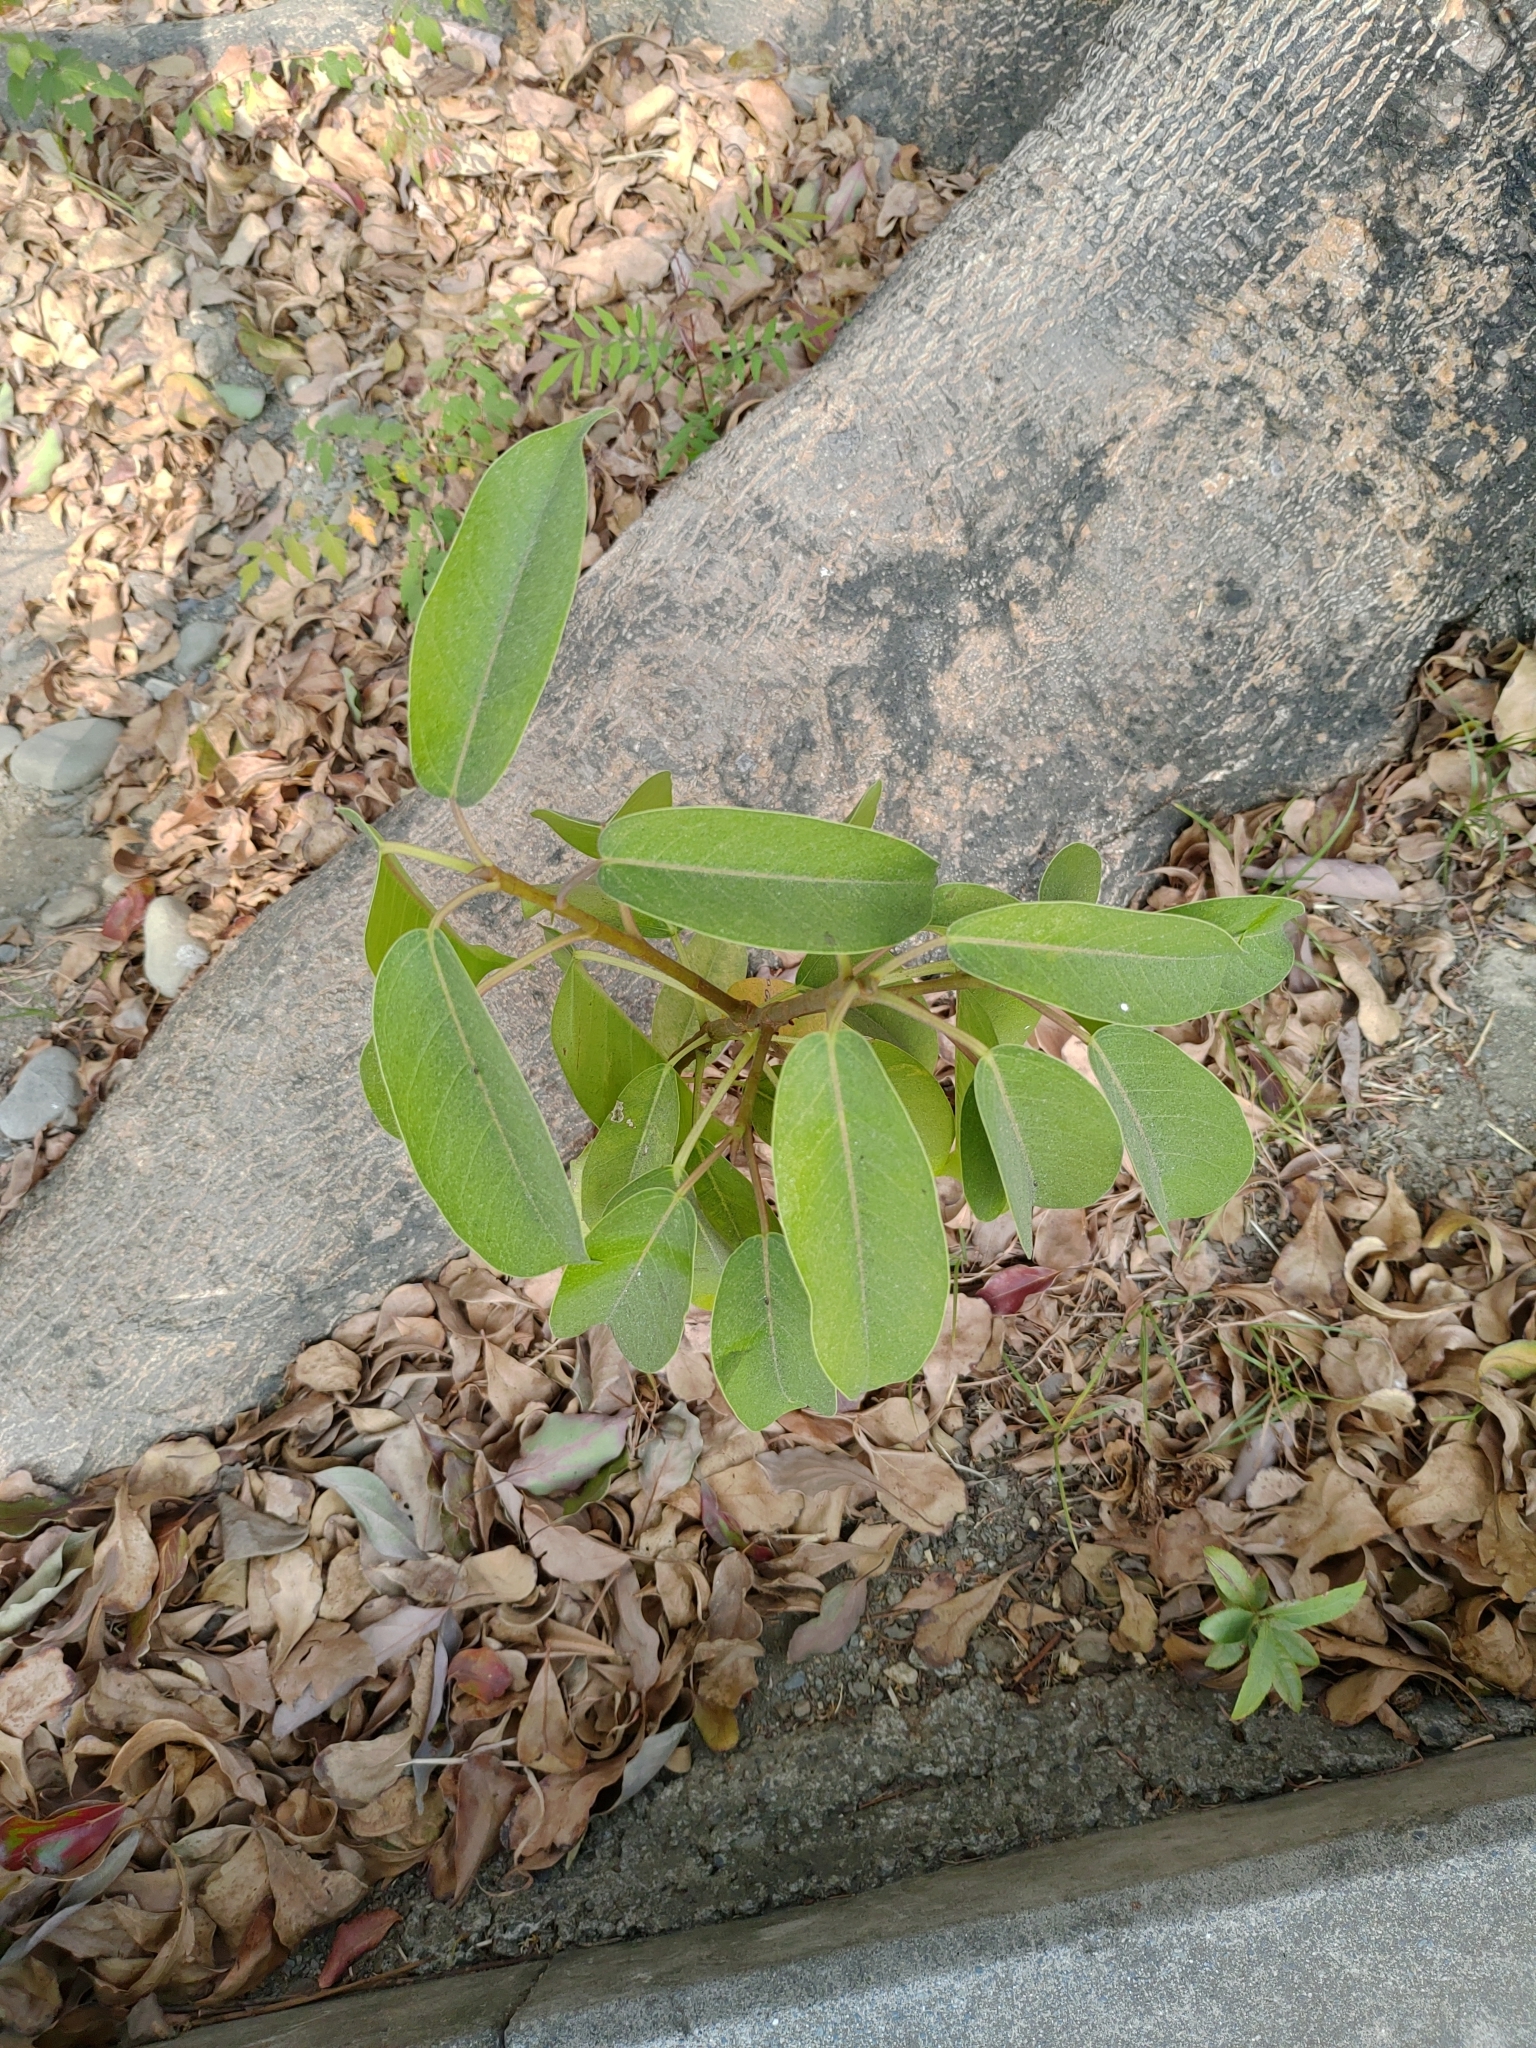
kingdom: Plantae
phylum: Tracheophyta
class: Magnoliopsida
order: Rosales
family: Moraceae
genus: Ficus
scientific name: Ficus subpisocarpa
